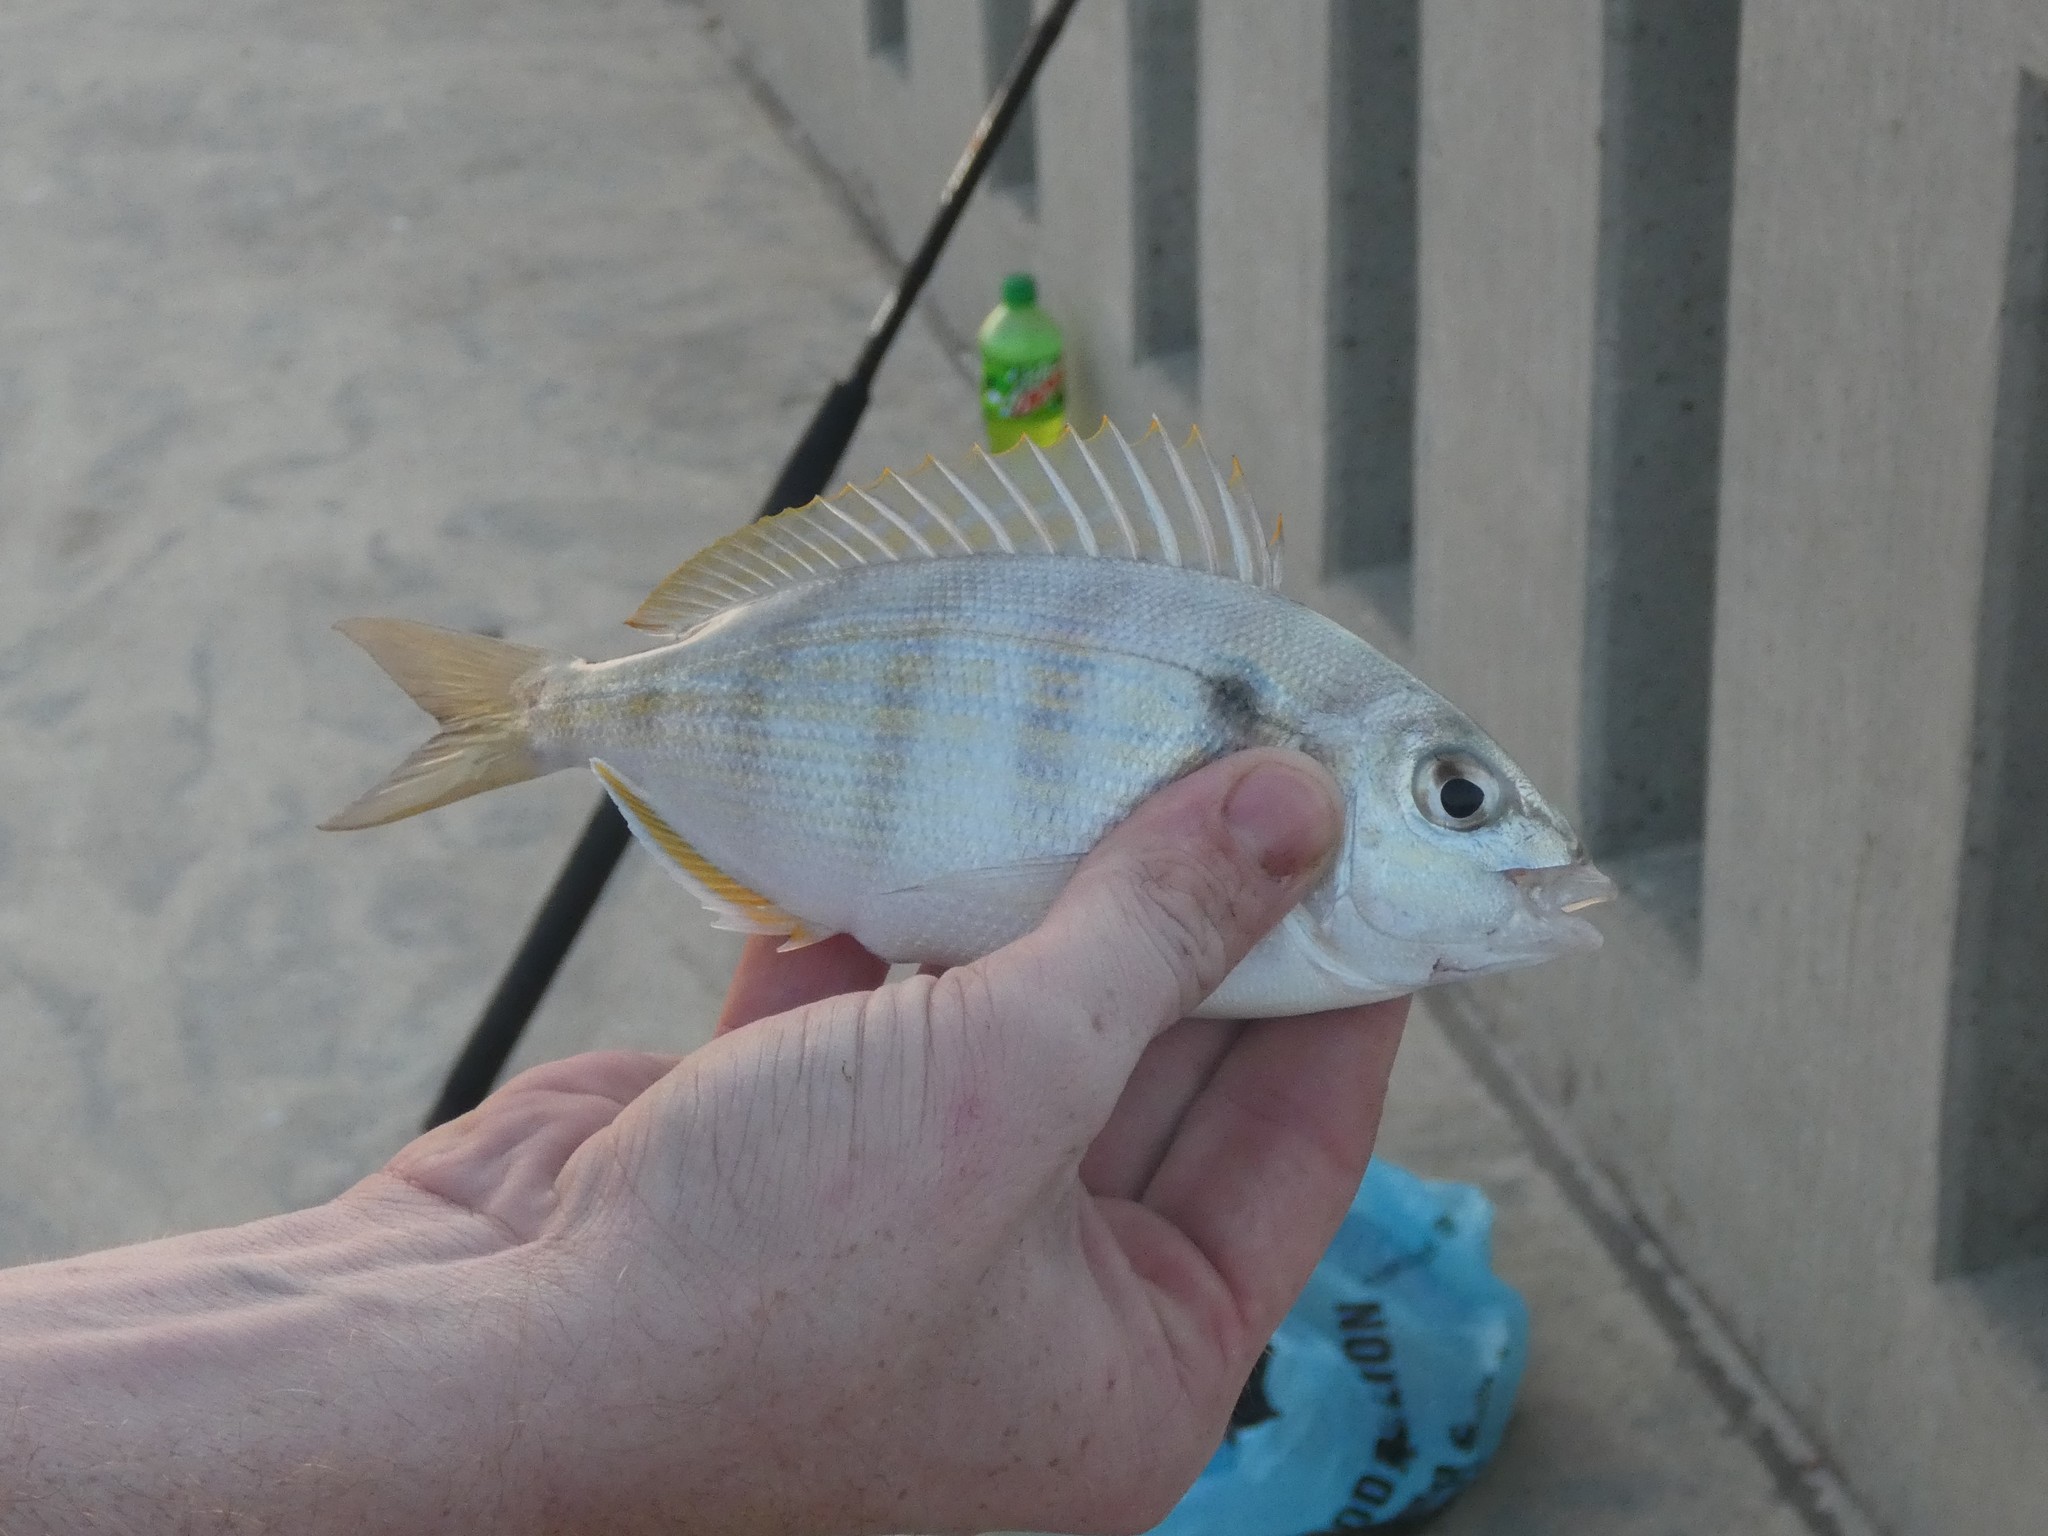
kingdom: Animalia
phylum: Chordata
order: Perciformes
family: Sparidae
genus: Lagodon
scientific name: Lagodon rhomboides
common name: Pinfish
